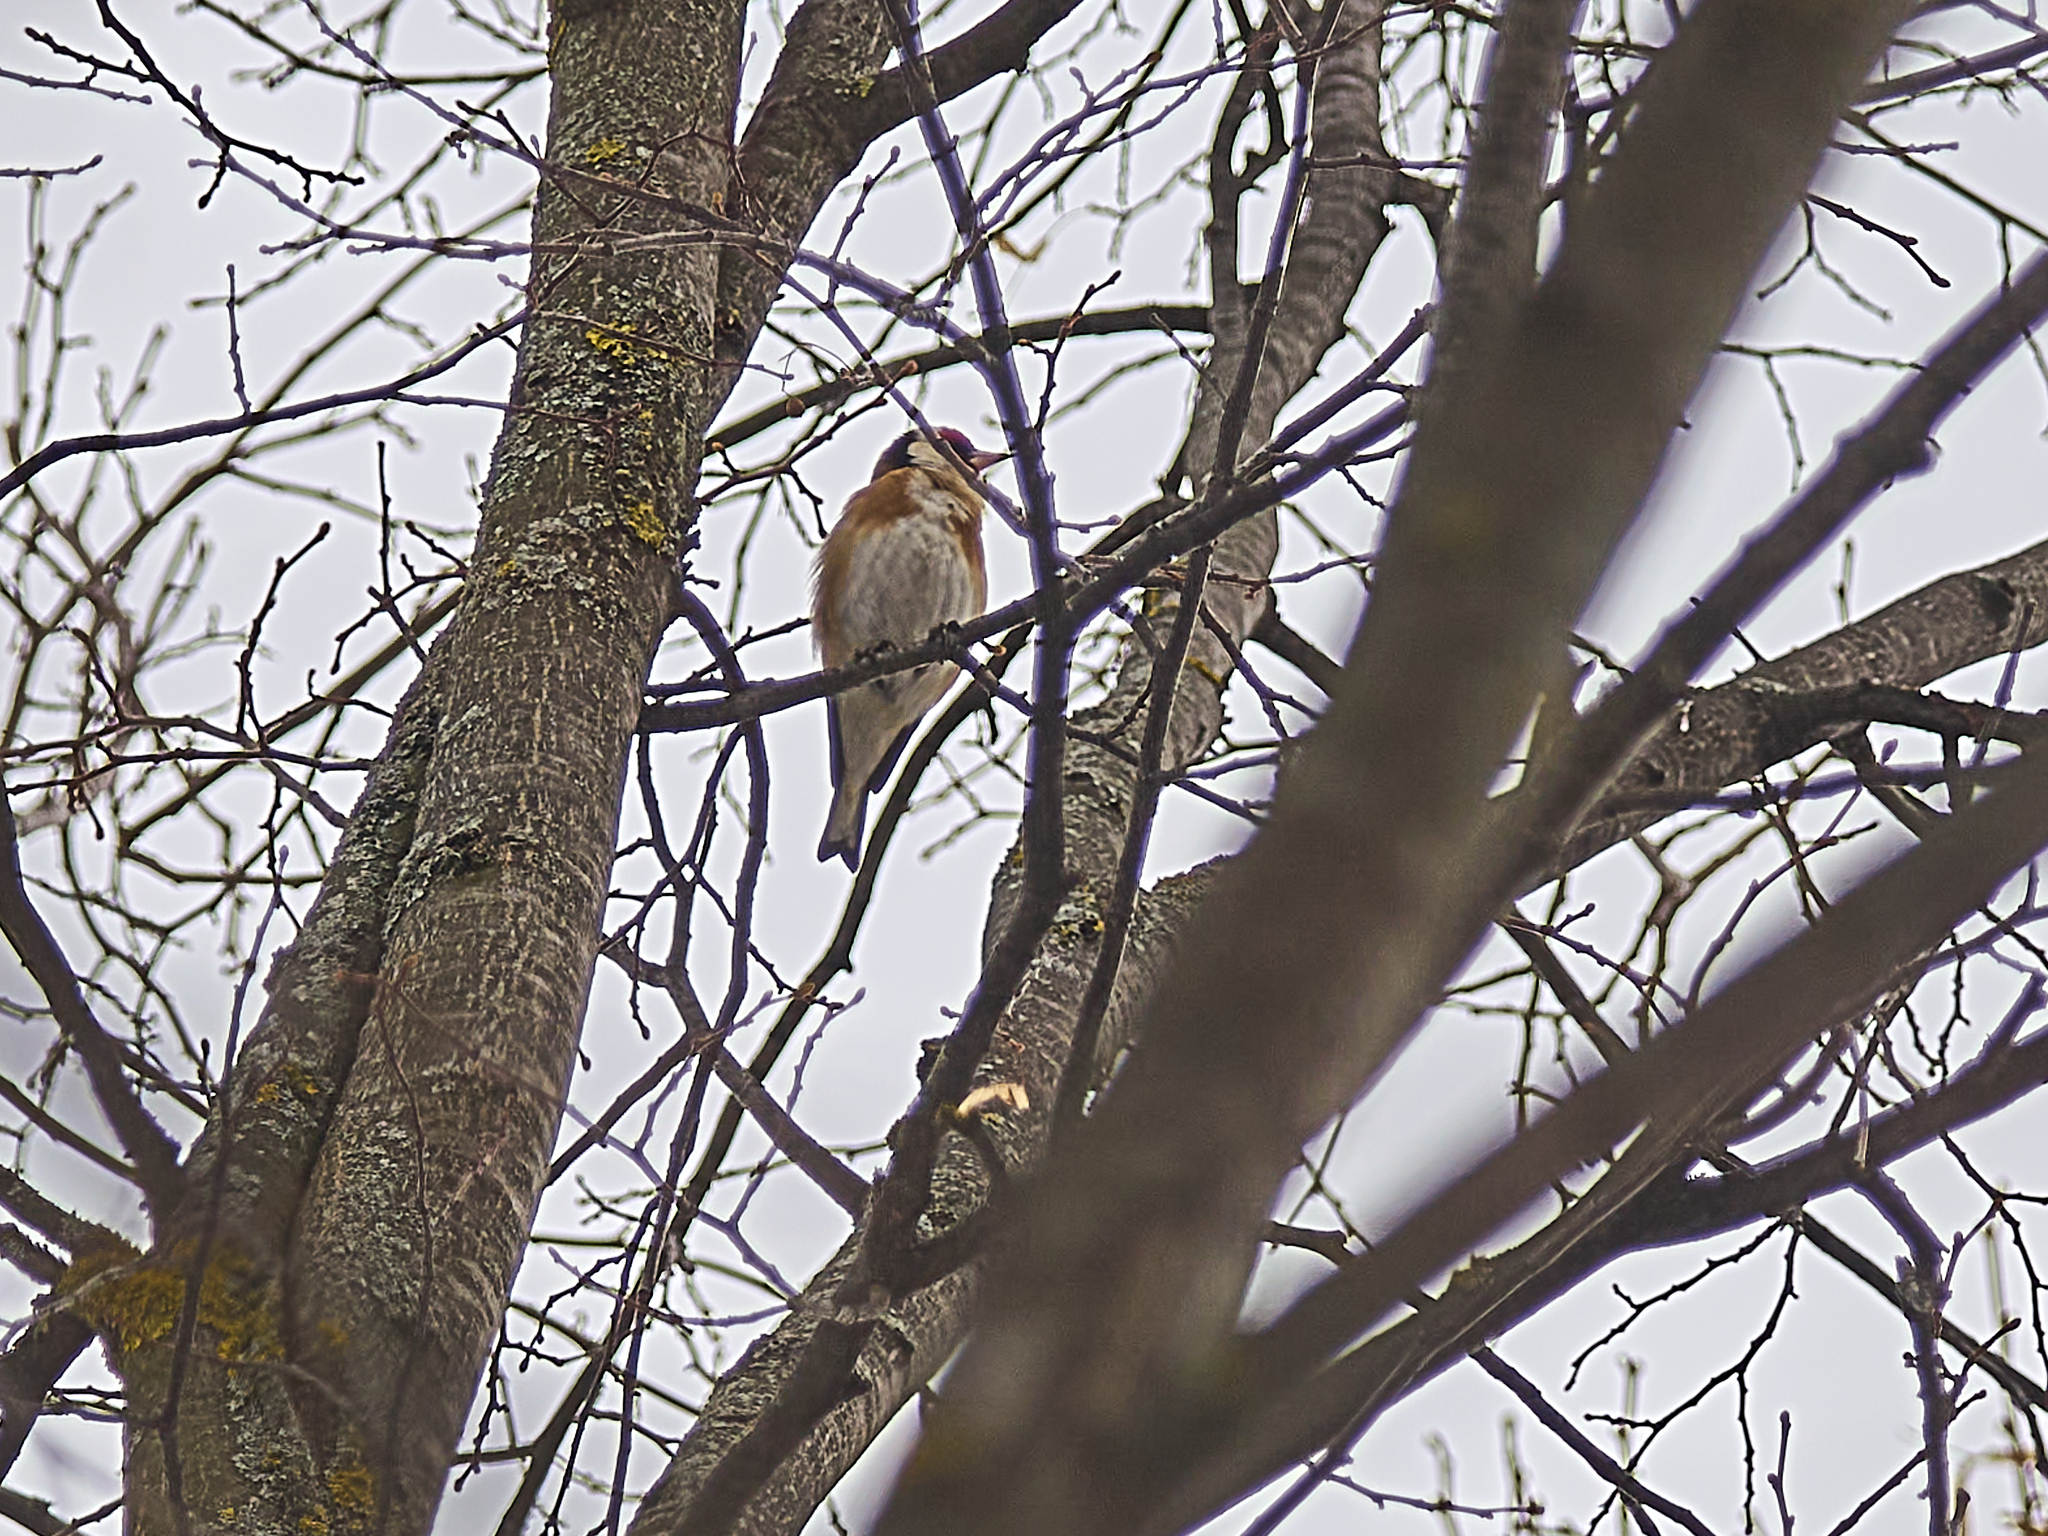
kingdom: Animalia
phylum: Chordata
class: Aves
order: Passeriformes
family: Fringillidae
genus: Carduelis
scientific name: Carduelis carduelis
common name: European goldfinch
